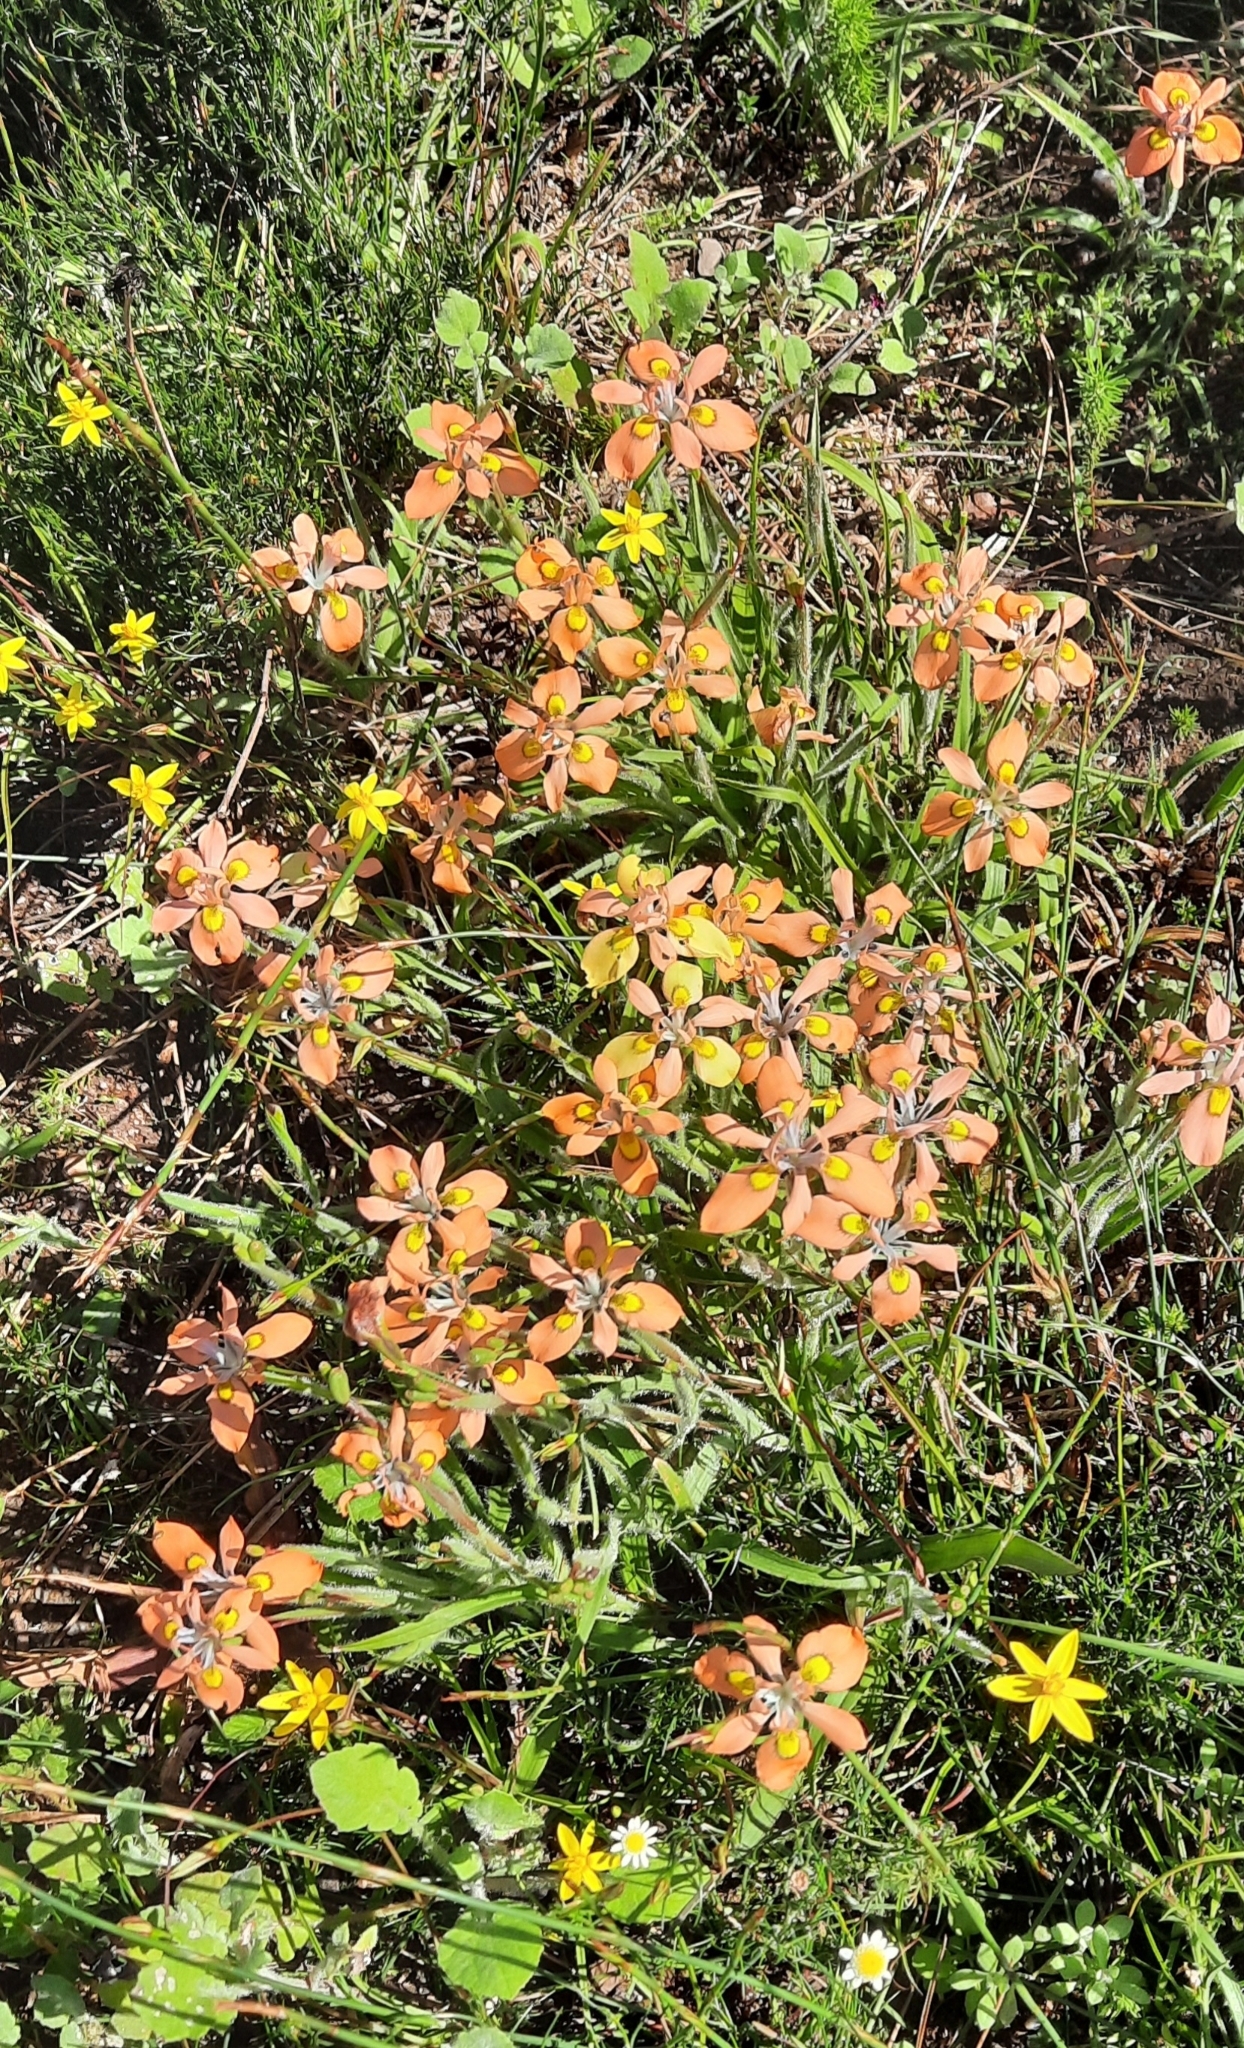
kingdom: Plantae
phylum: Tracheophyta
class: Liliopsida
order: Asparagales
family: Iridaceae
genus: Moraea
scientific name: Moraea papilionacea
